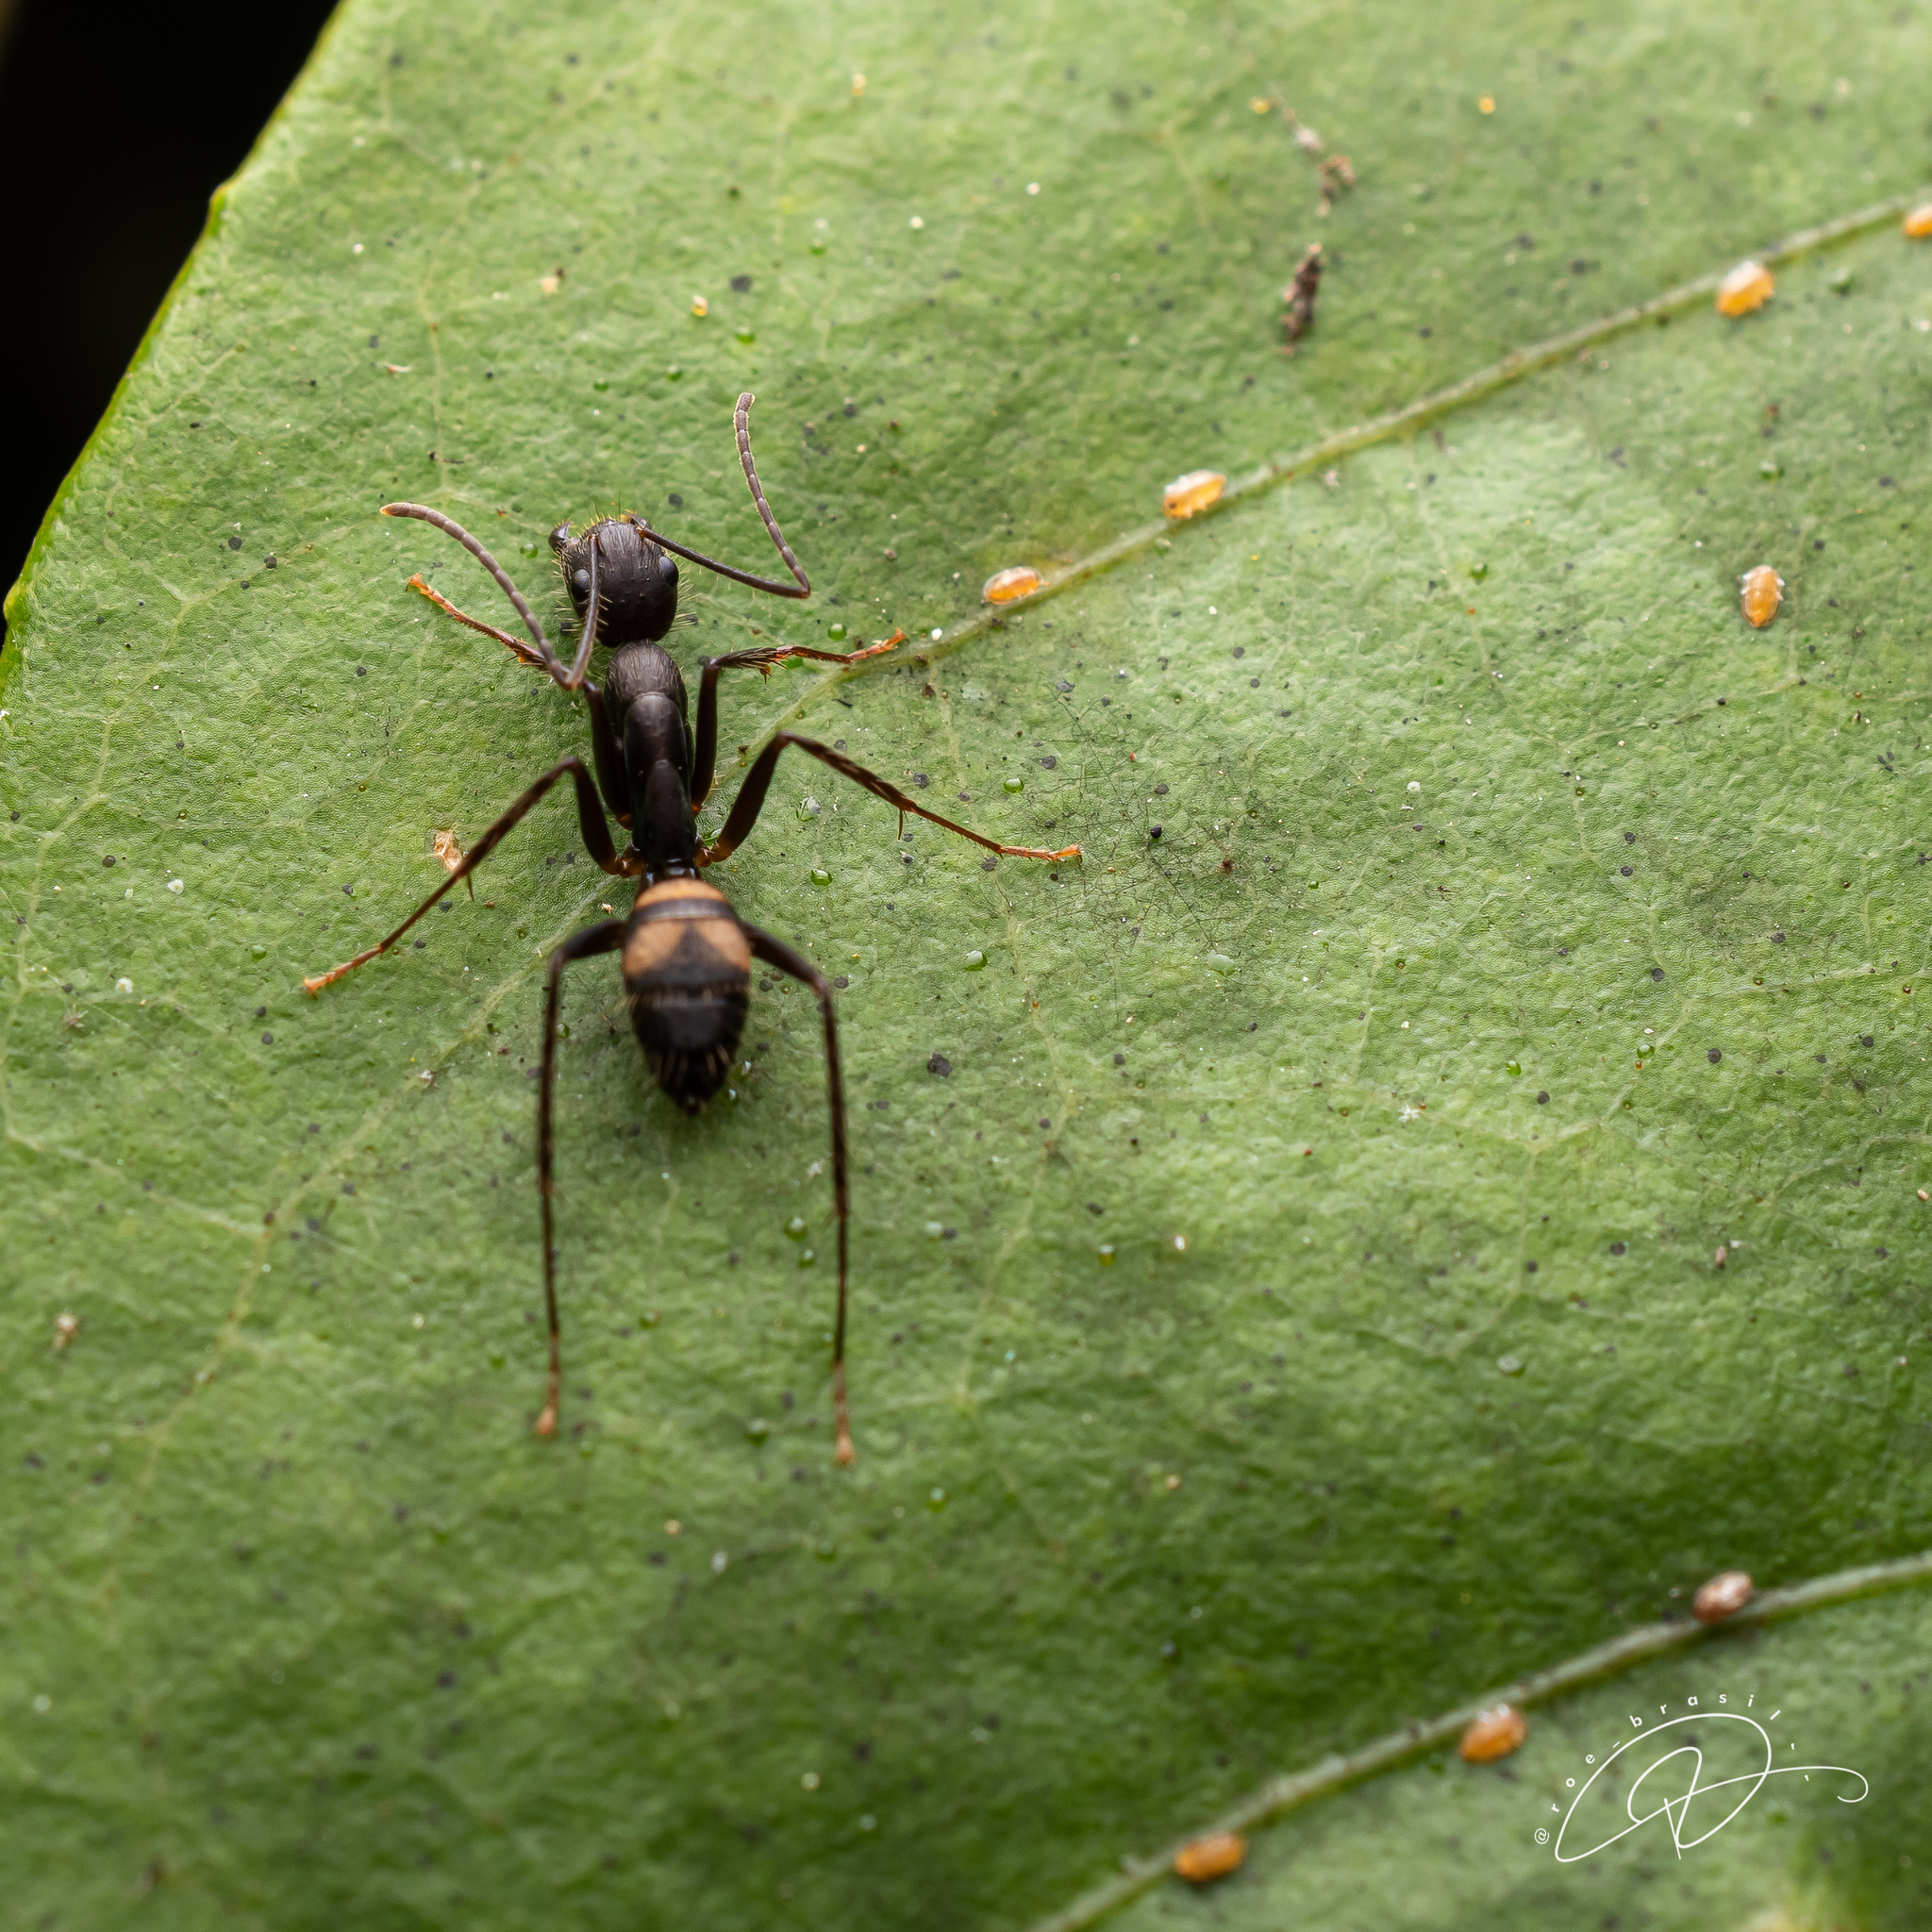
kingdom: Animalia
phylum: Arthropoda
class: Insecta
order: Hymenoptera
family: Formicidae
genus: Camponotus
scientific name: Camponotus cingulatus
